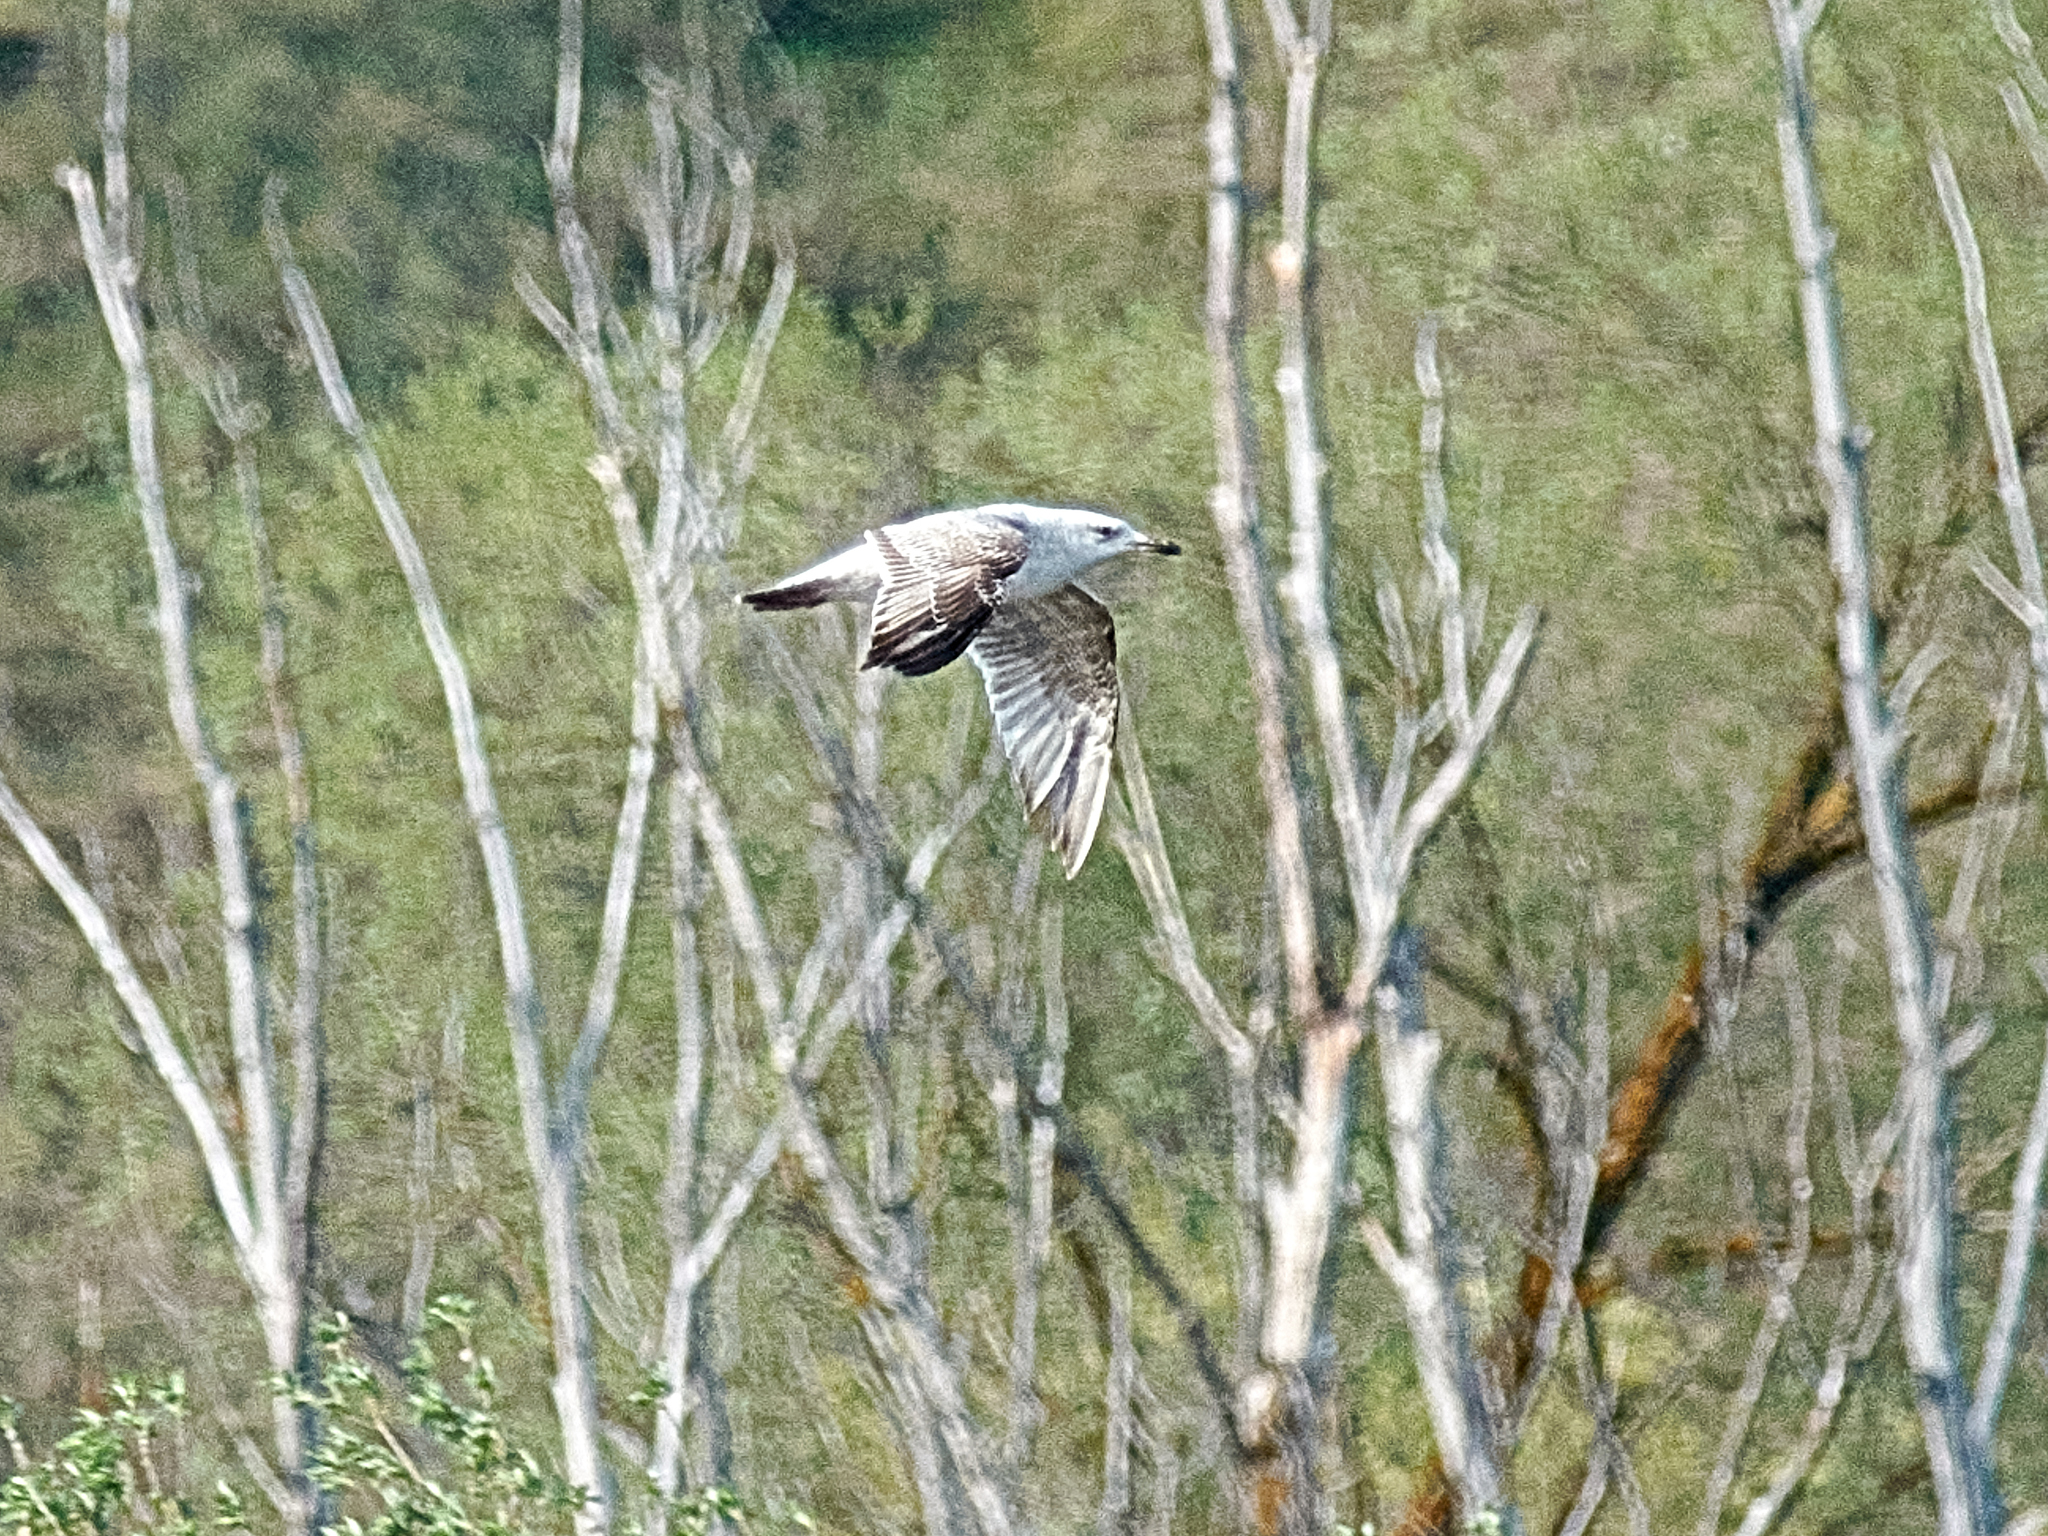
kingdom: Animalia
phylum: Chordata
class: Aves
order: Charadriiformes
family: Laridae
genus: Larus
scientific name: Larus cachinnans
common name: Caspian gull
